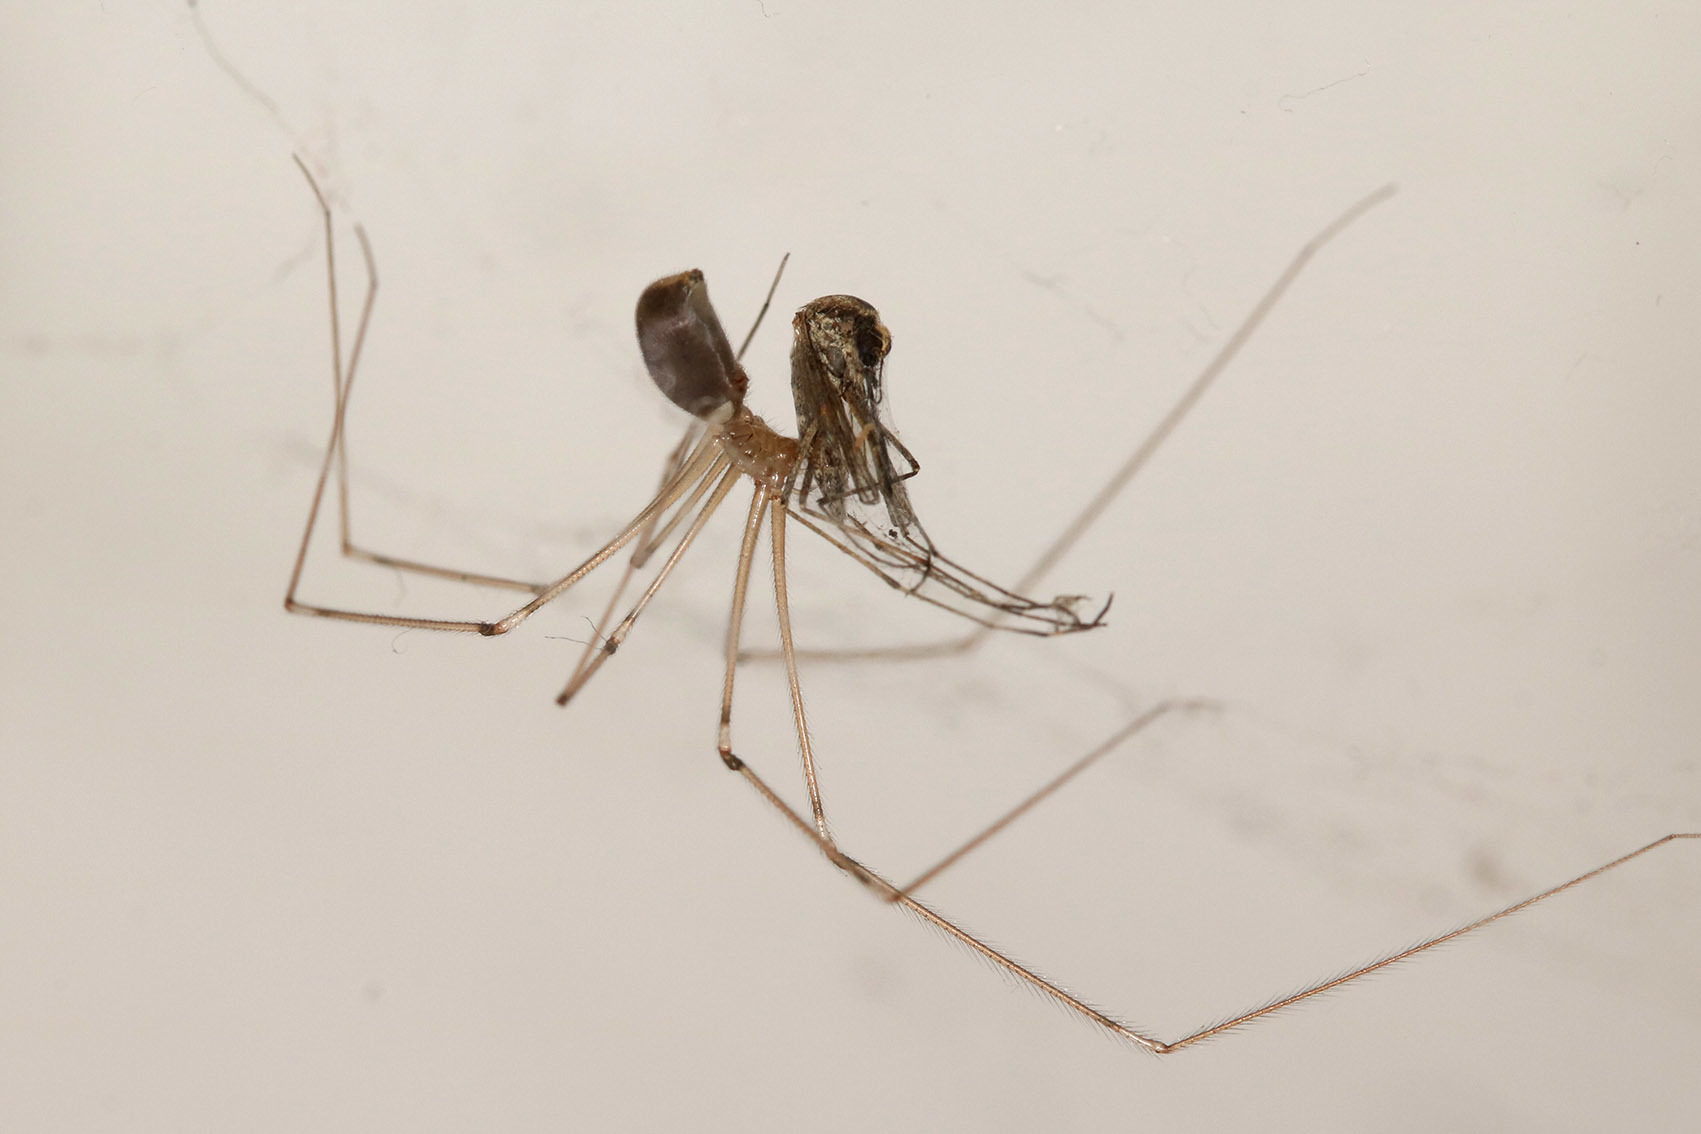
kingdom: Animalia
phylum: Arthropoda
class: Arachnida
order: Araneae
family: Pholcidae
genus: Pholcus
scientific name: Pholcus phalangioides
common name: Longbodied cellar spider
